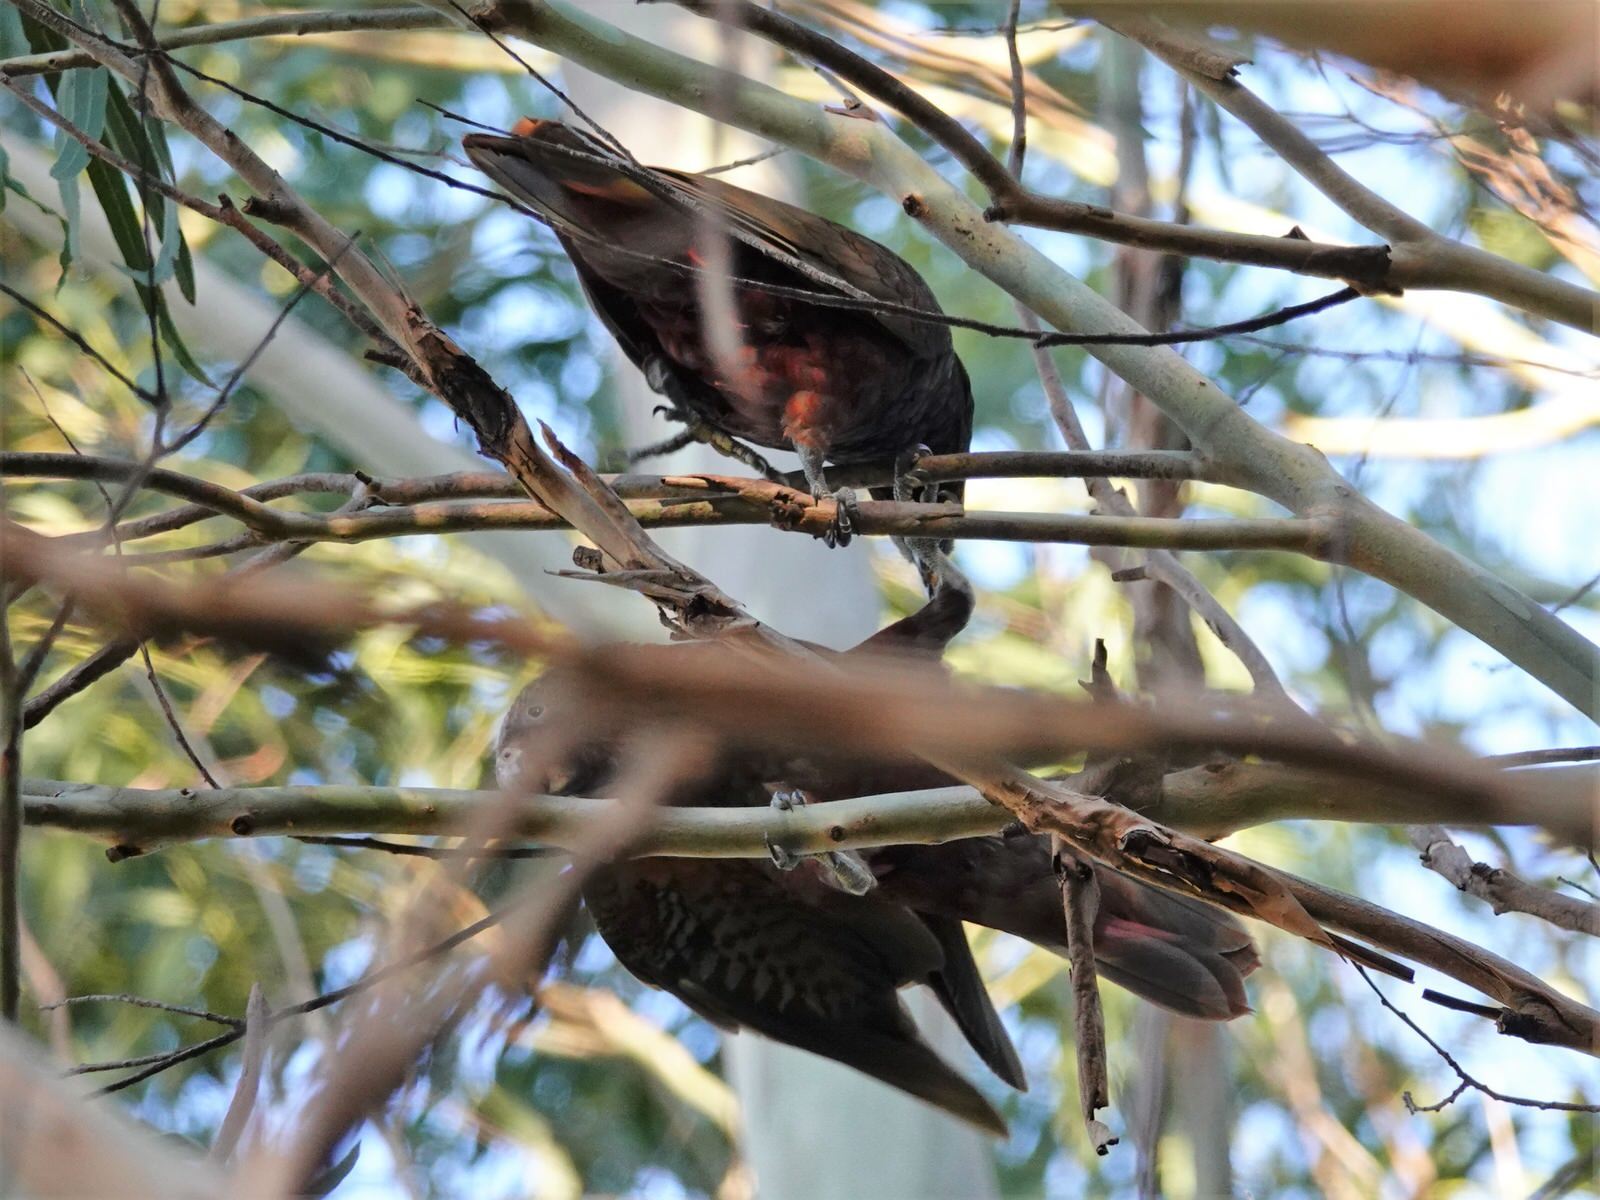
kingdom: Animalia
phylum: Chordata
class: Aves
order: Psittaciformes
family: Psittacidae
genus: Nestor
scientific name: Nestor meridionalis
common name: New zealand kaka
